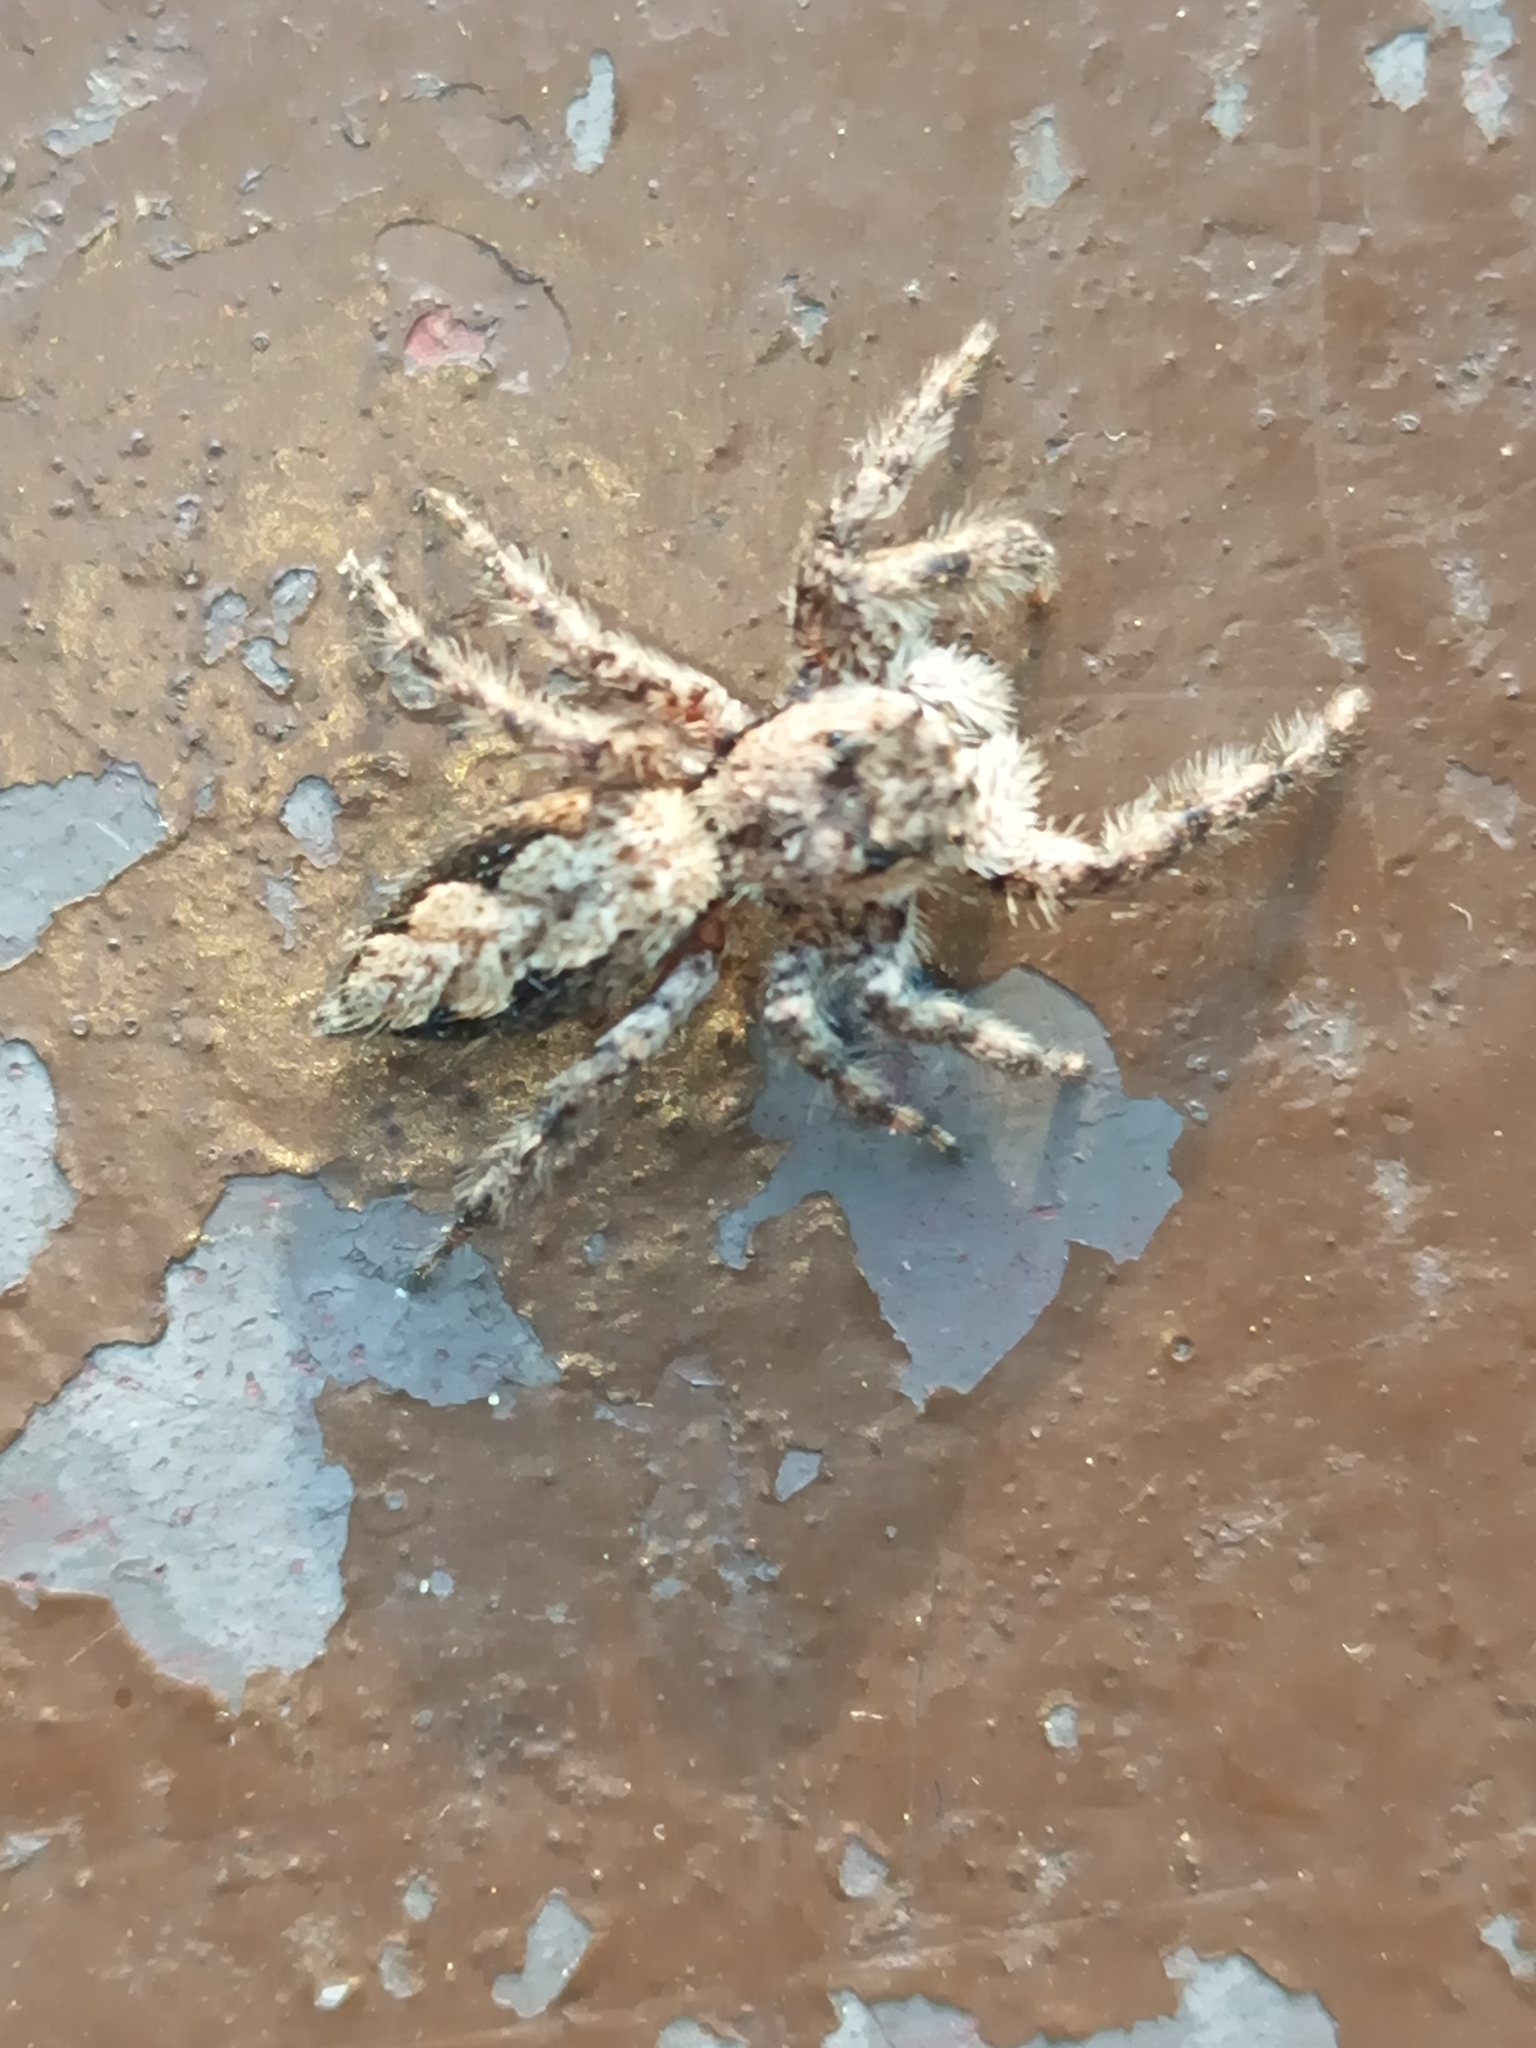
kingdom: Animalia
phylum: Arthropoda
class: Arachnida
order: Araneae
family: Salticidae
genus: Platycryptus
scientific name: Platycryptus undatus
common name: Tan jumping spider
